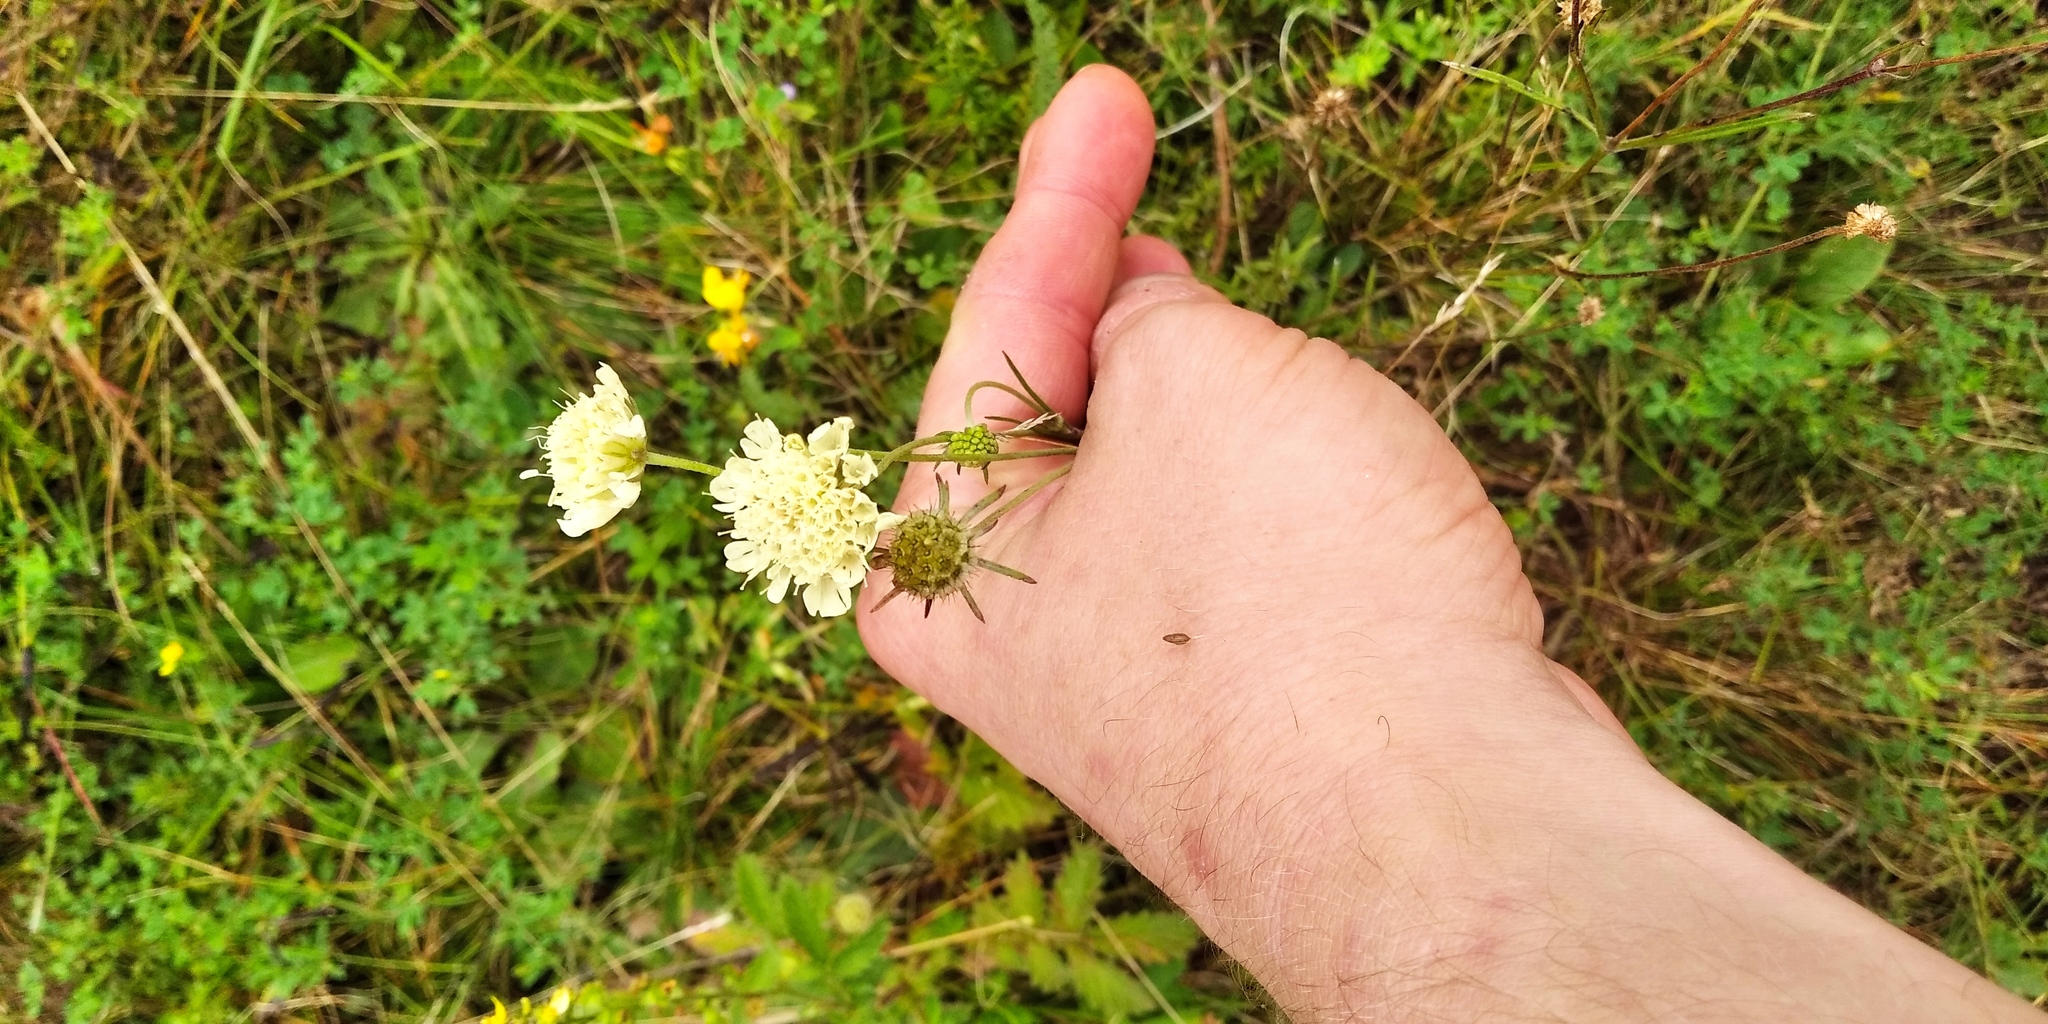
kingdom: Plantae
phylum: Tracheophyta
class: Magnoliopsida
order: Dipsacales
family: Caprifoliaceae
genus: Scabiosa
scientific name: Scabiosa ochroleuca
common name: Cream pincushions
